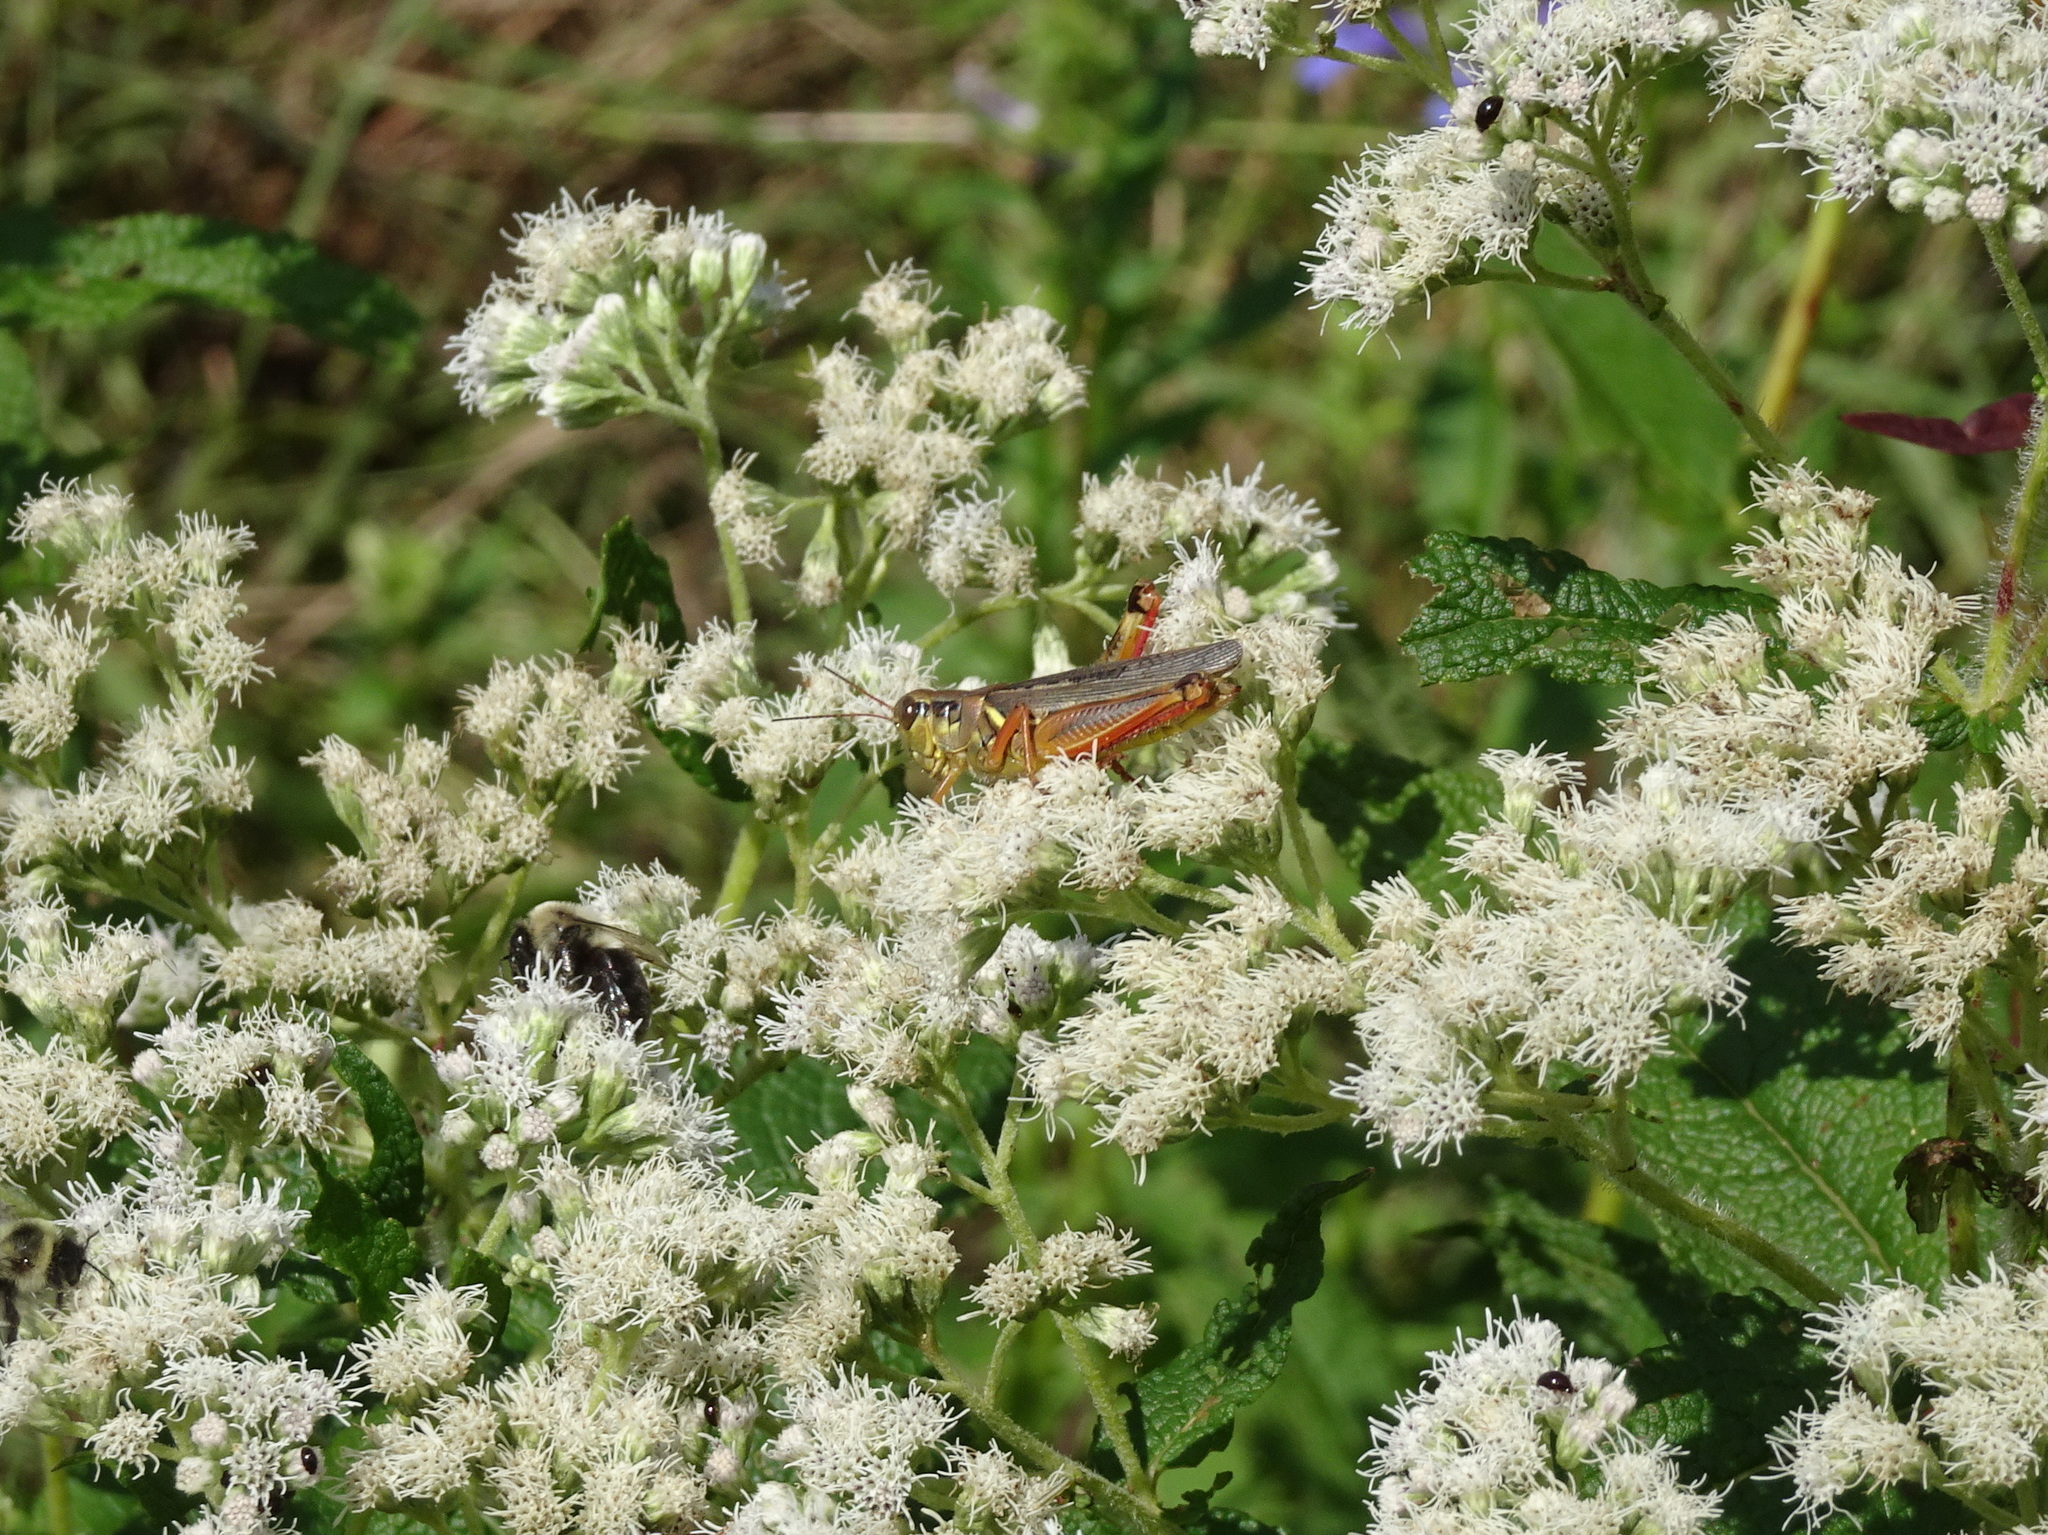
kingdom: Animalia
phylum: Arthropoda
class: Insecta
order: Orthoptera
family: Acrididae
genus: Melanoplus
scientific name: Melanoplus femurrubrum
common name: Red-legged grasshopper
